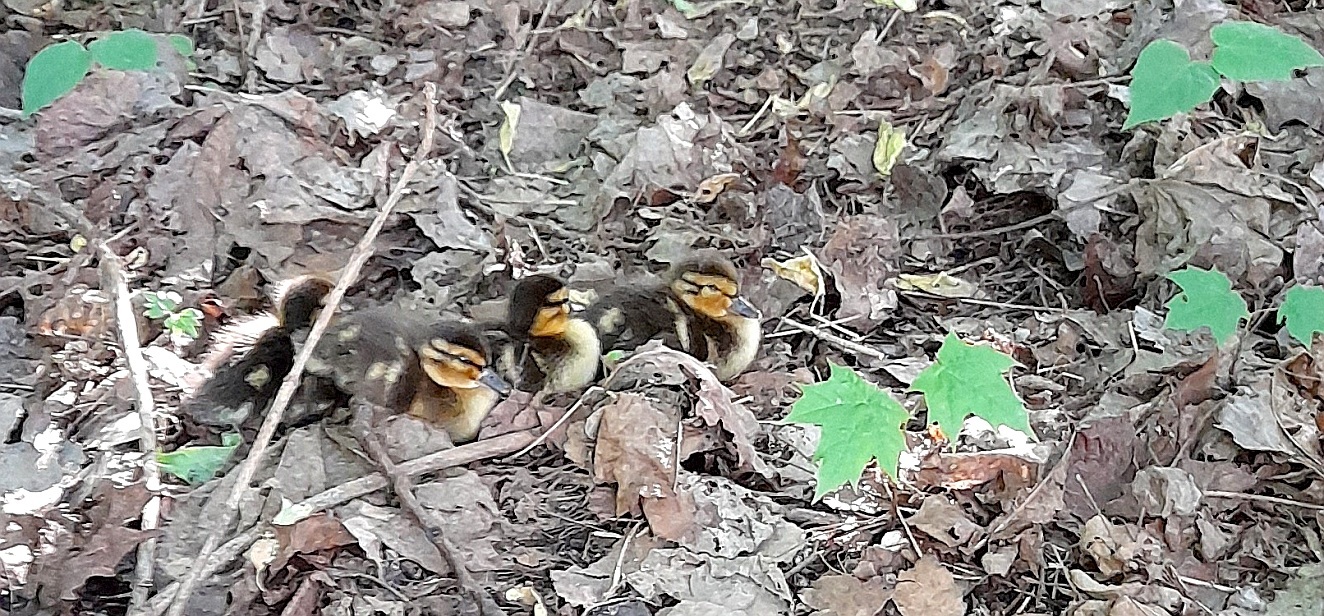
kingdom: Animalia
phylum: Chordata
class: Aves
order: Anseriformes
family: Anatidae
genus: Anas
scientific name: Anas platyrhynchos
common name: Mallard
